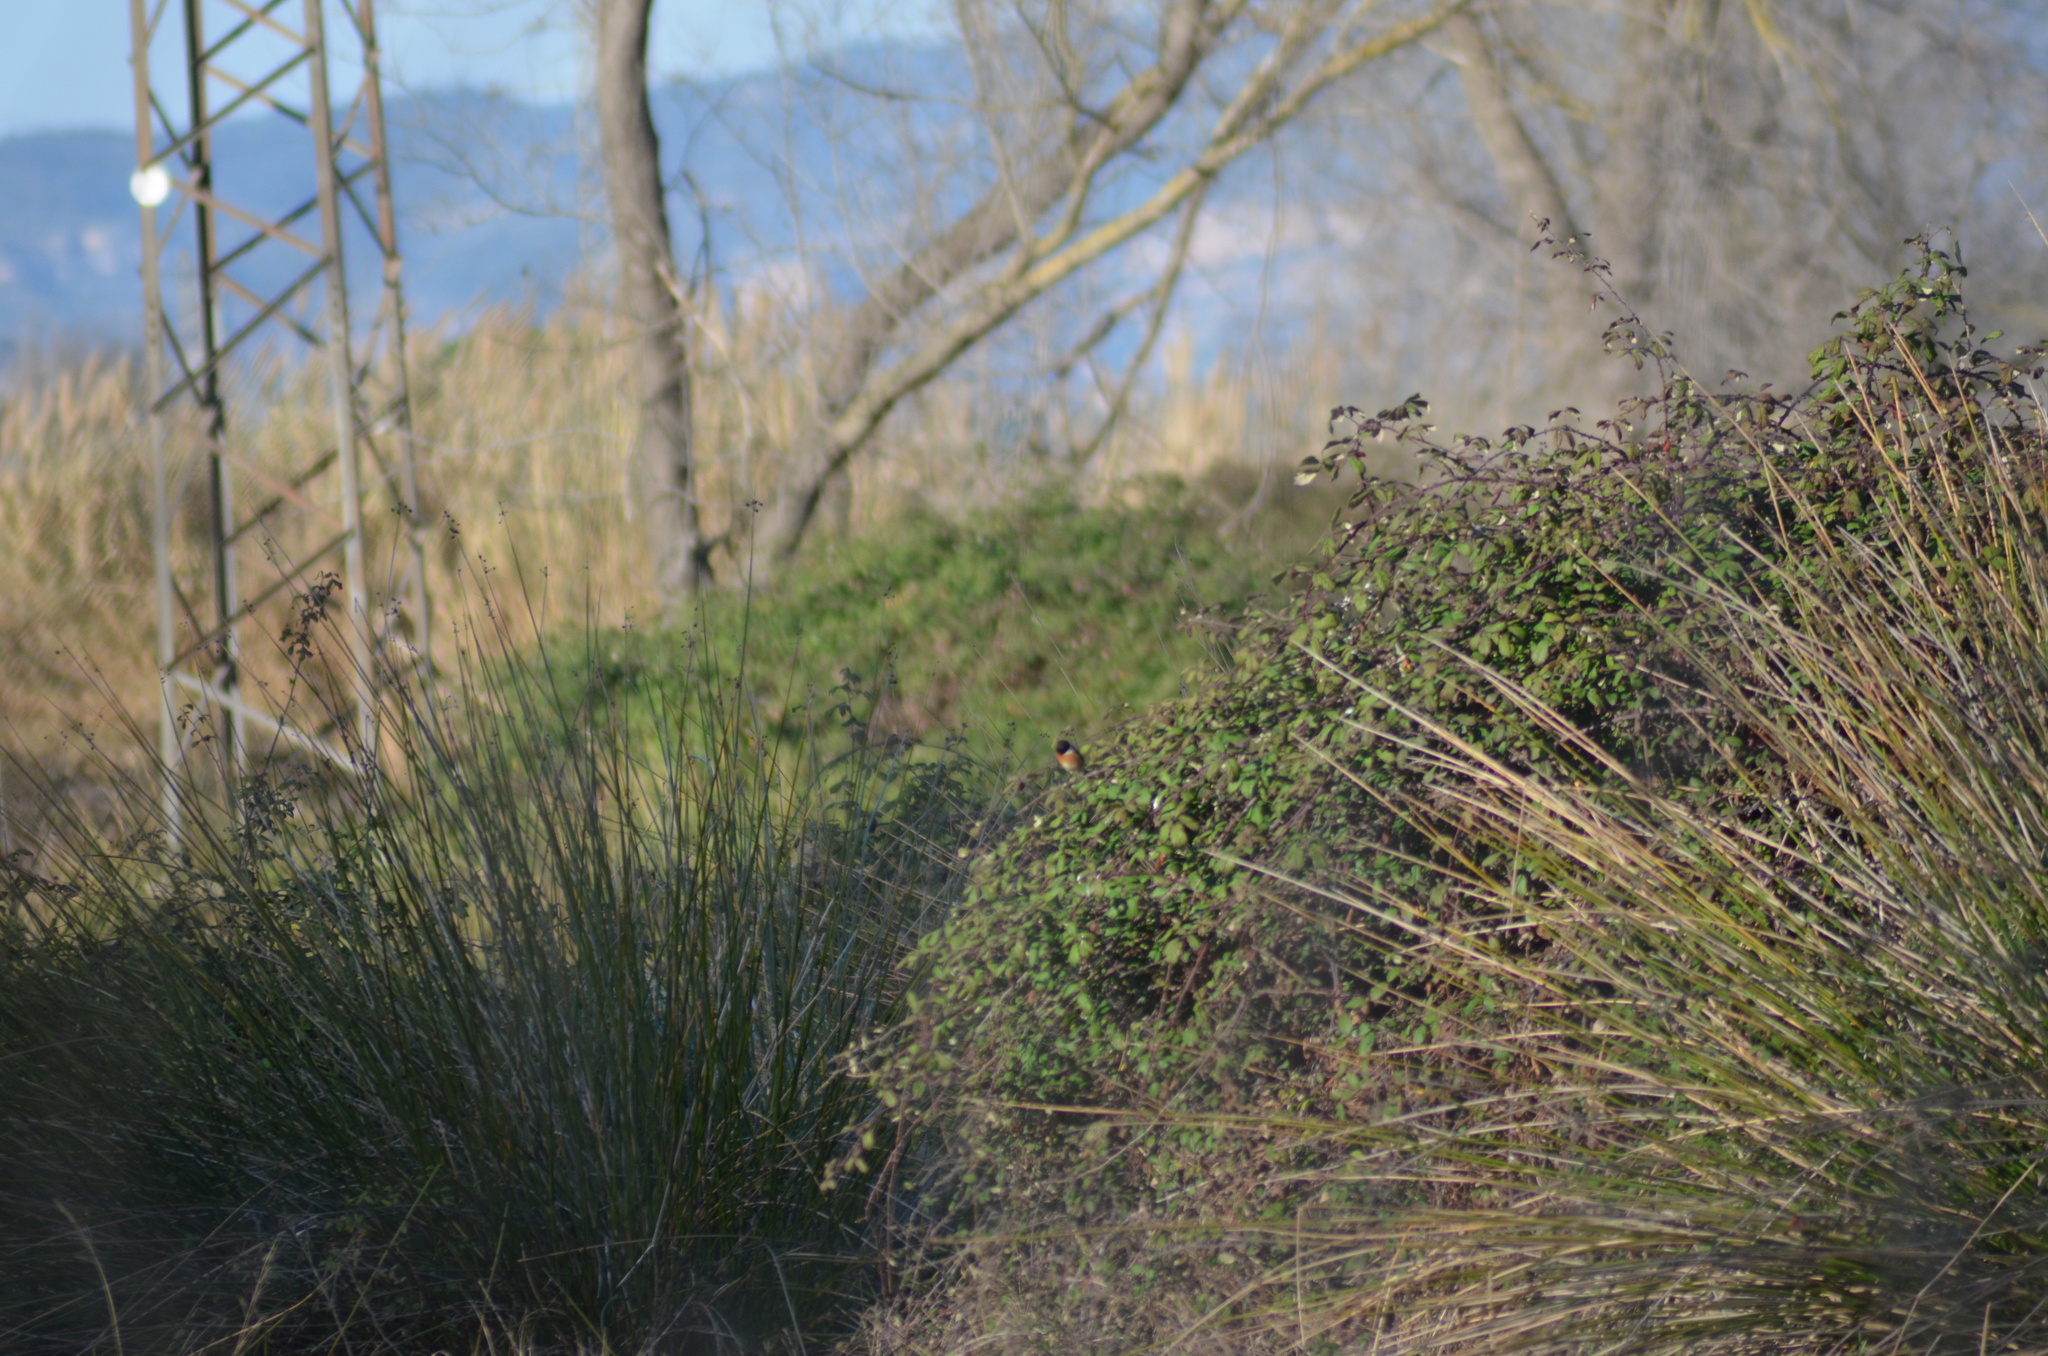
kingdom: Animalia
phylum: Chordata
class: Aves
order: Passeriformes
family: Muscicapidae
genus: Saxicola
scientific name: Saxicola rubicola
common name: European stonechat
